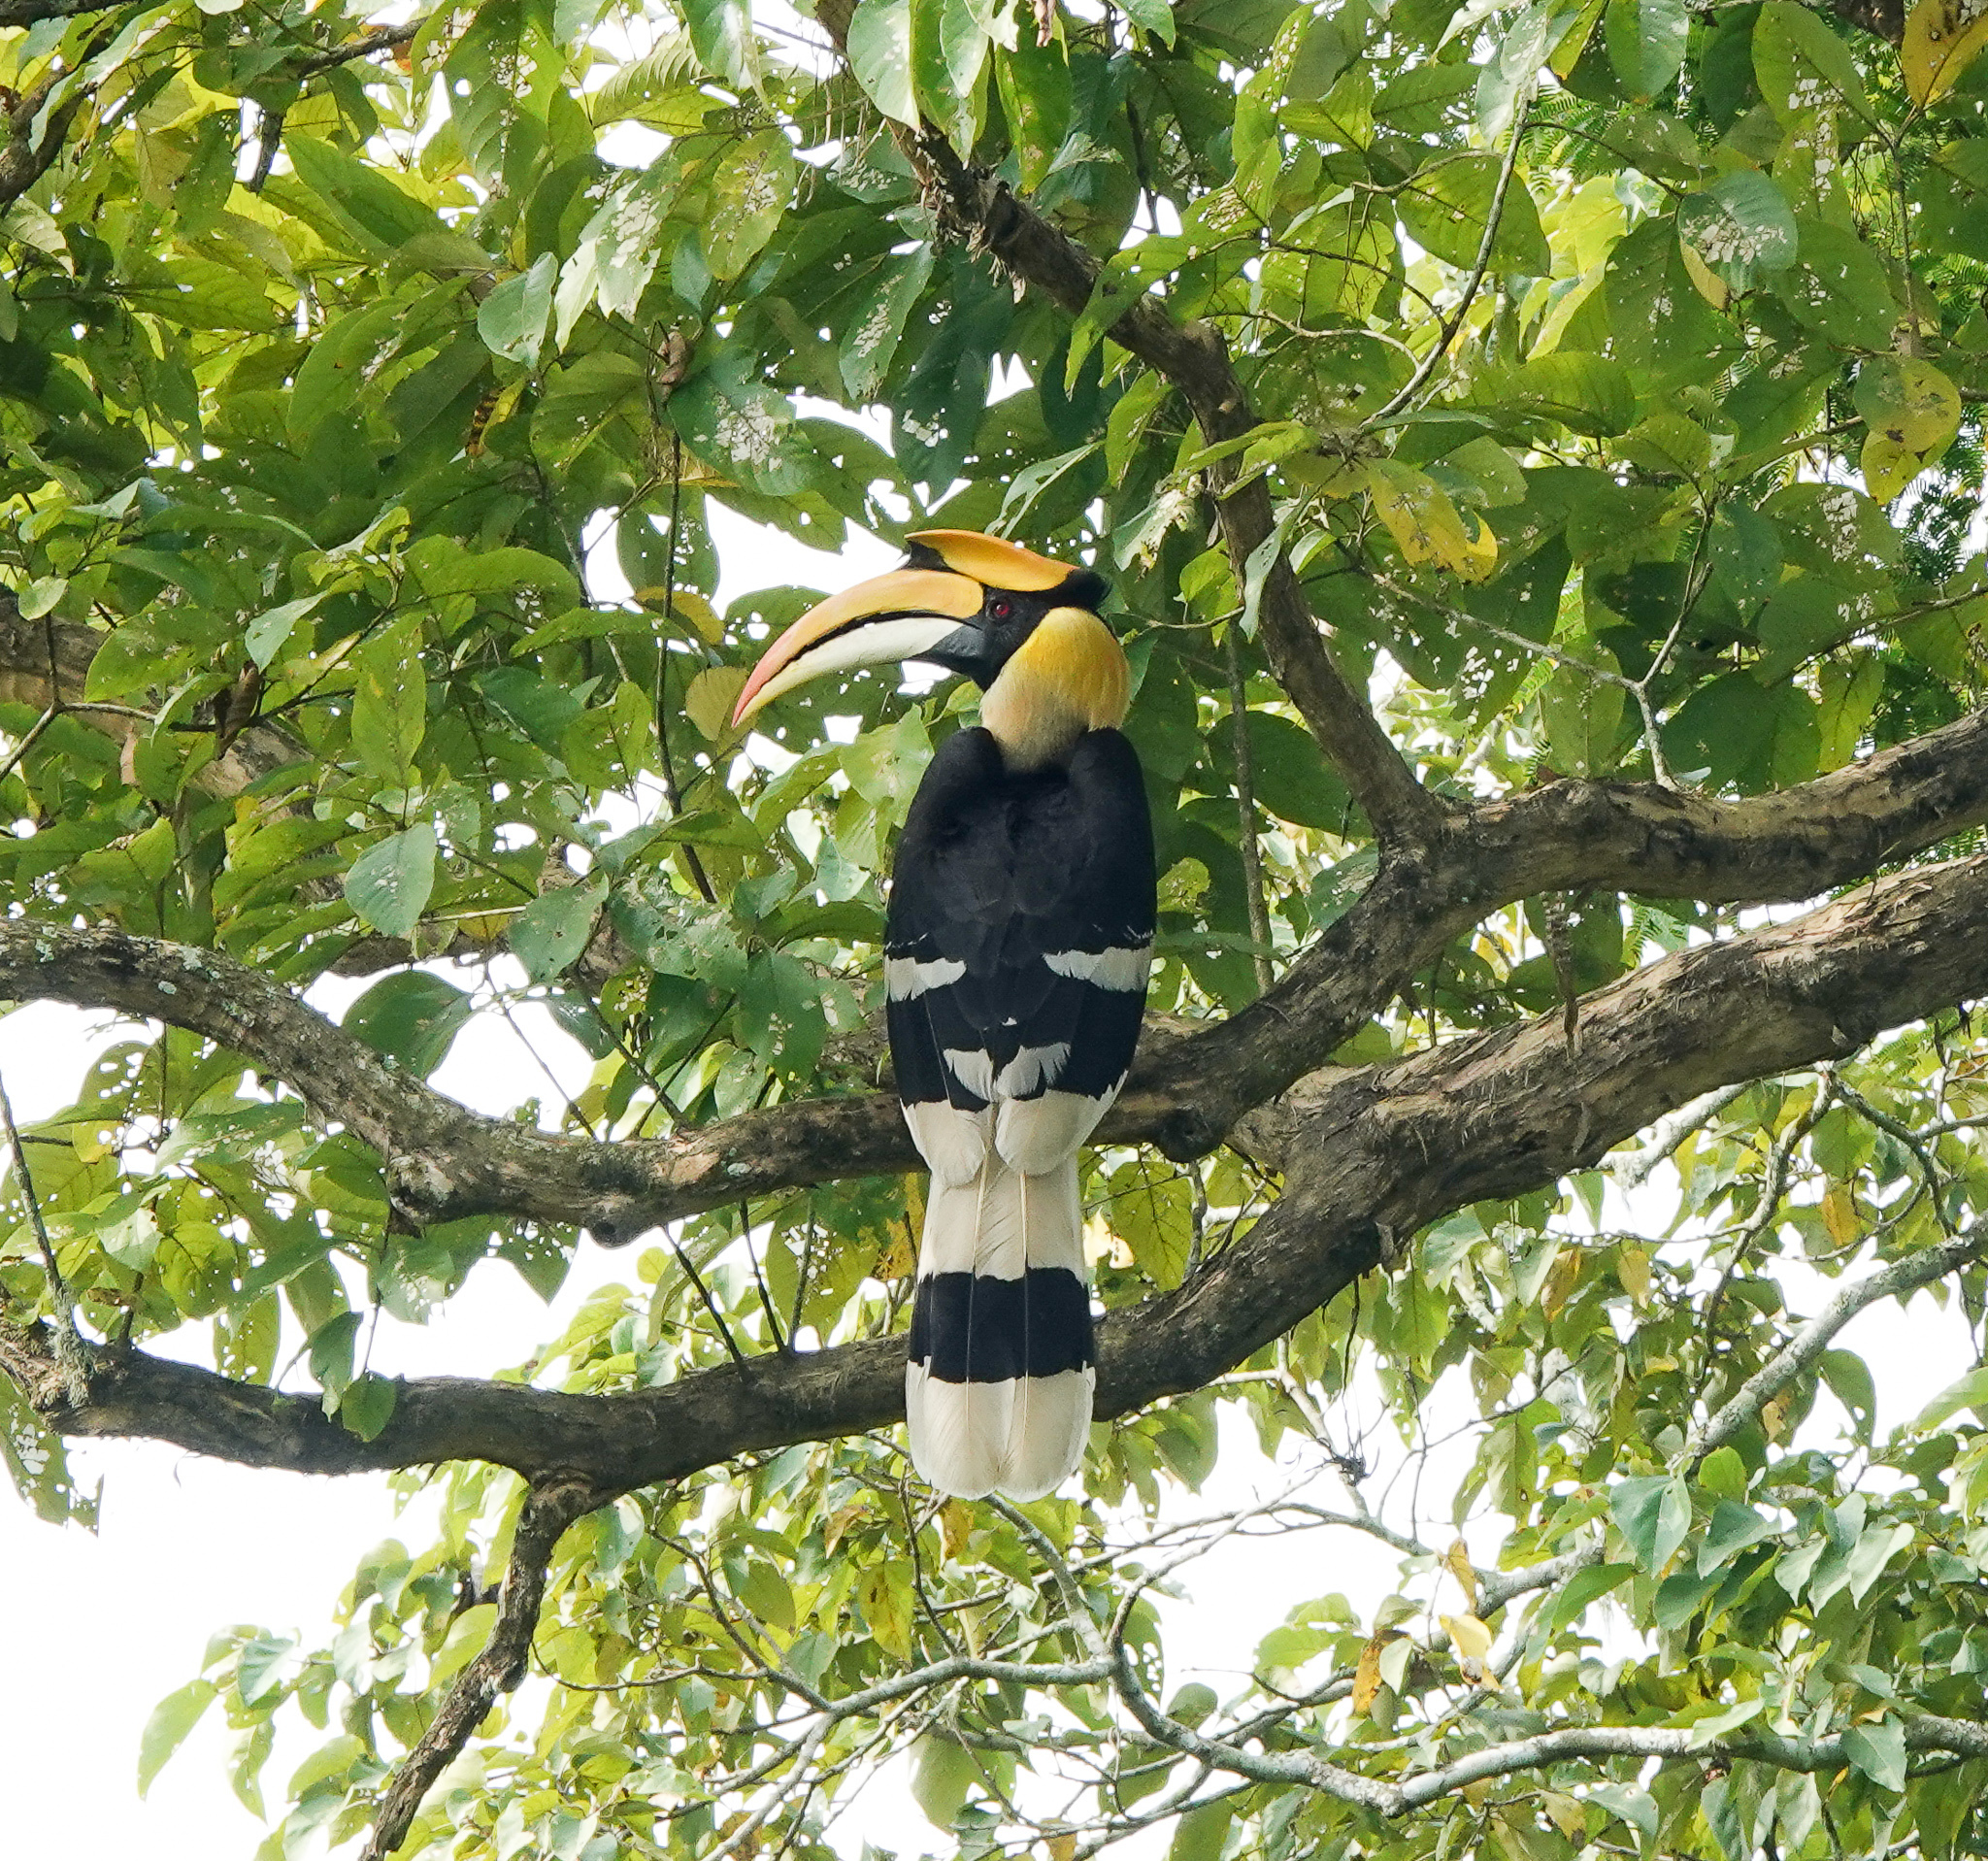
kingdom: Animalia
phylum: Chordata
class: Aves
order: Bucerotiformes
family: Bucerotidae
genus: Buceros
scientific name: Buceros bicornis
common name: Great hornbill
